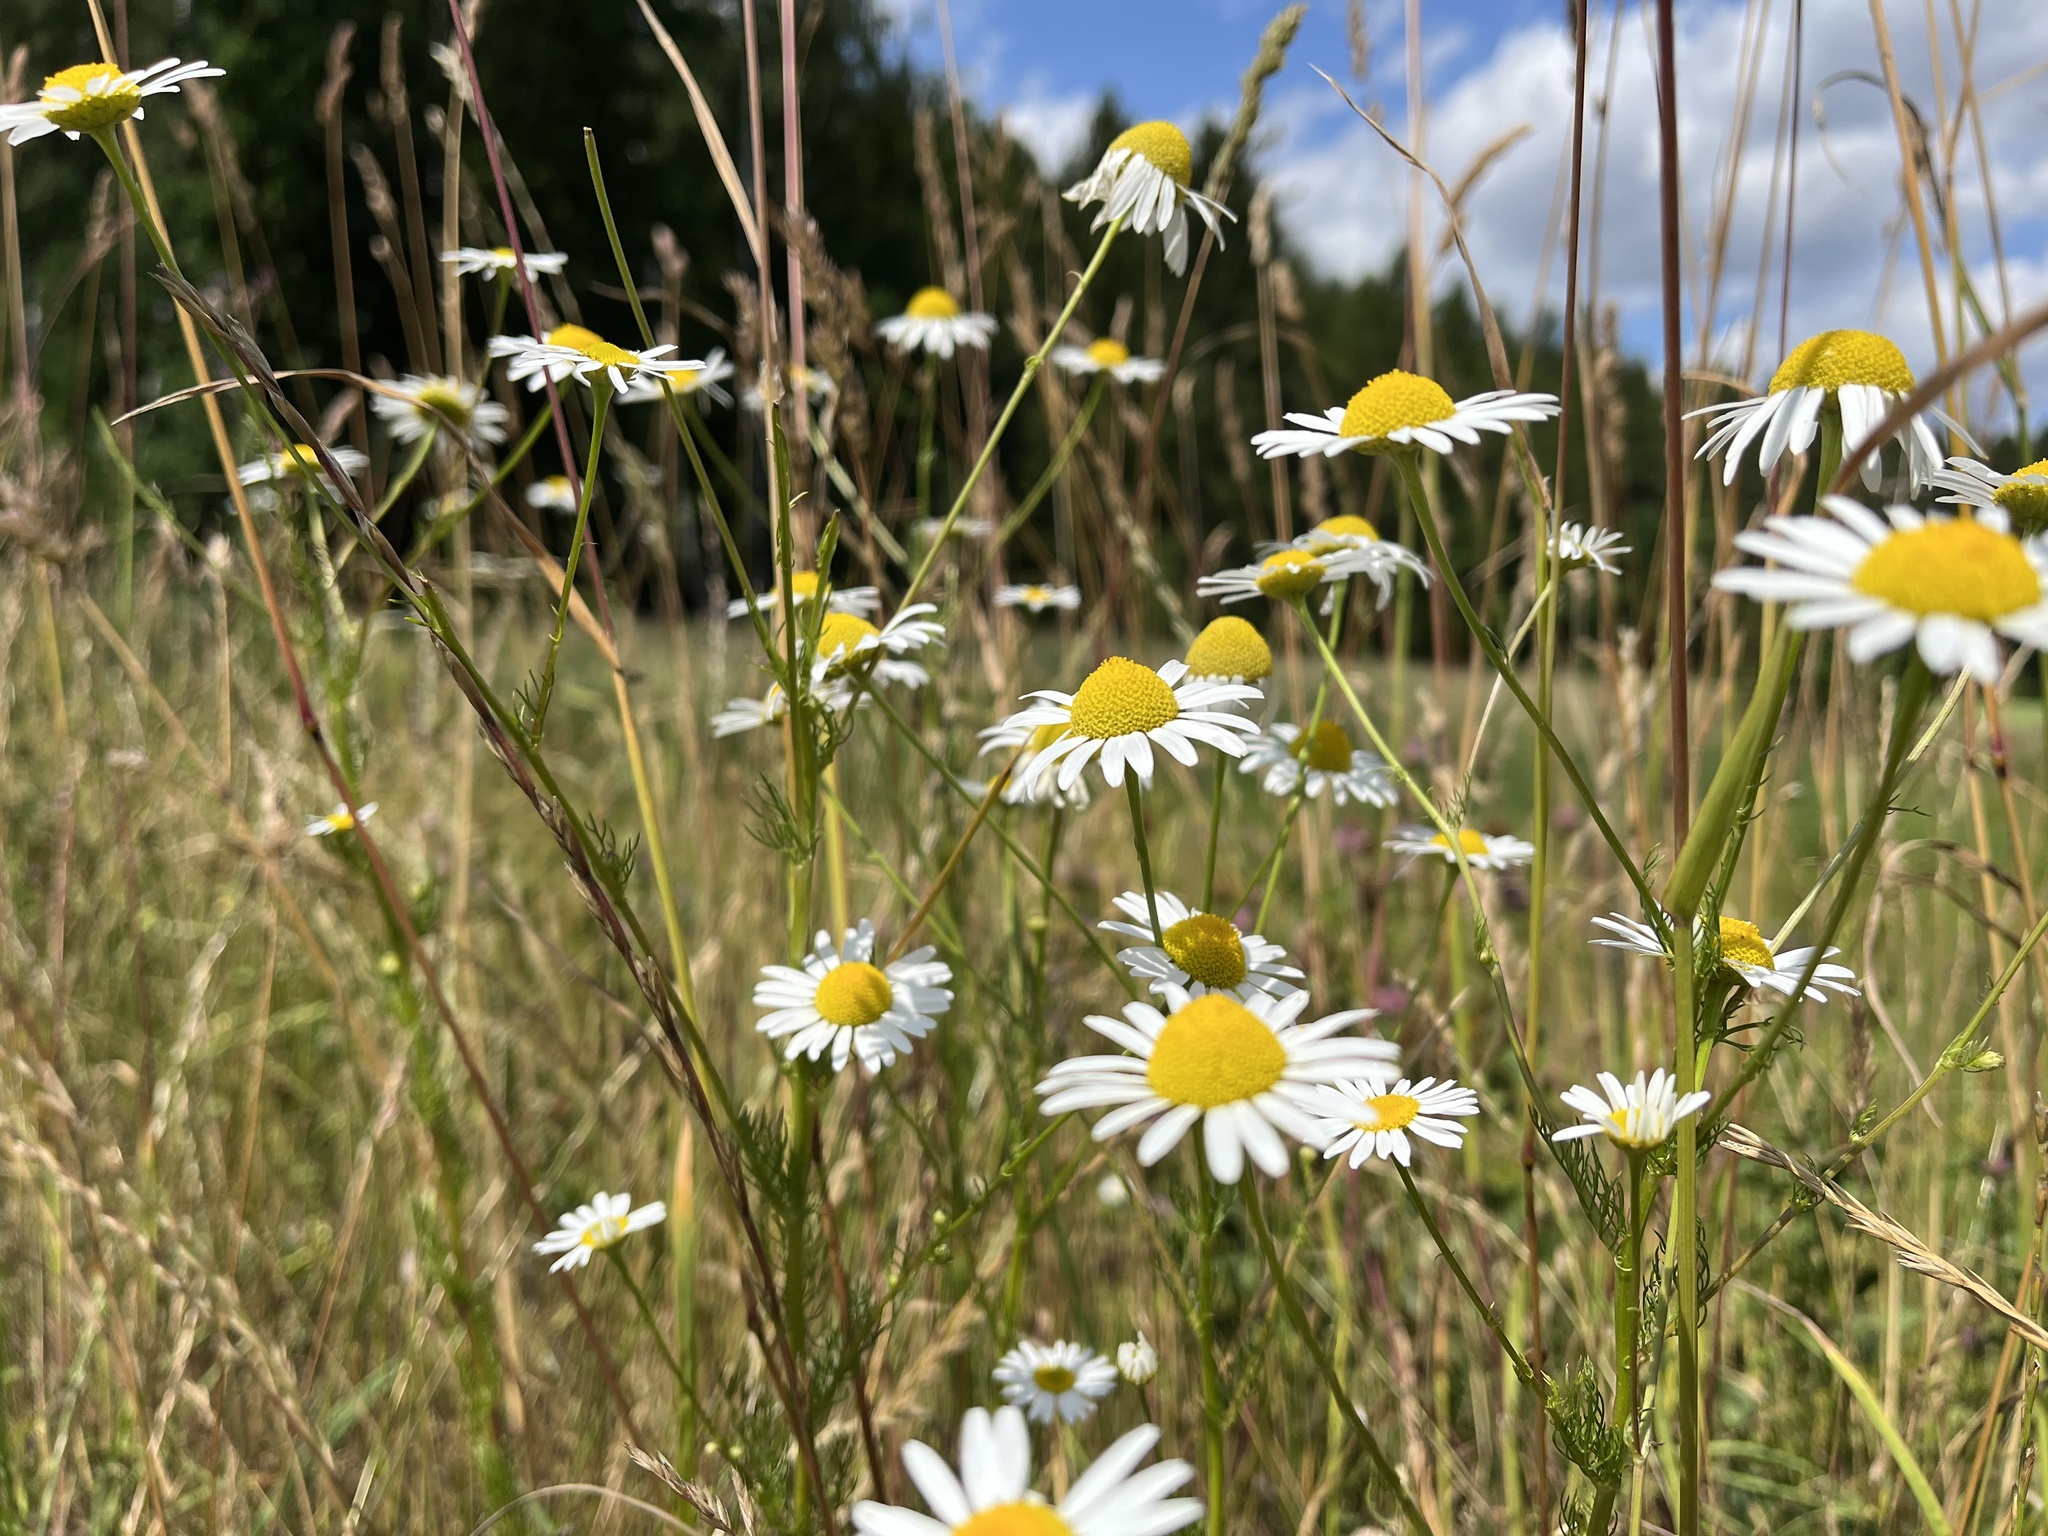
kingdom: Plantae
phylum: Tracheophyta
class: Magnoliopsida
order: Asterales
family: Asteraceae
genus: Tripleurospermum
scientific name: Tripleurospermum inodorum
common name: Scentless mayweed
